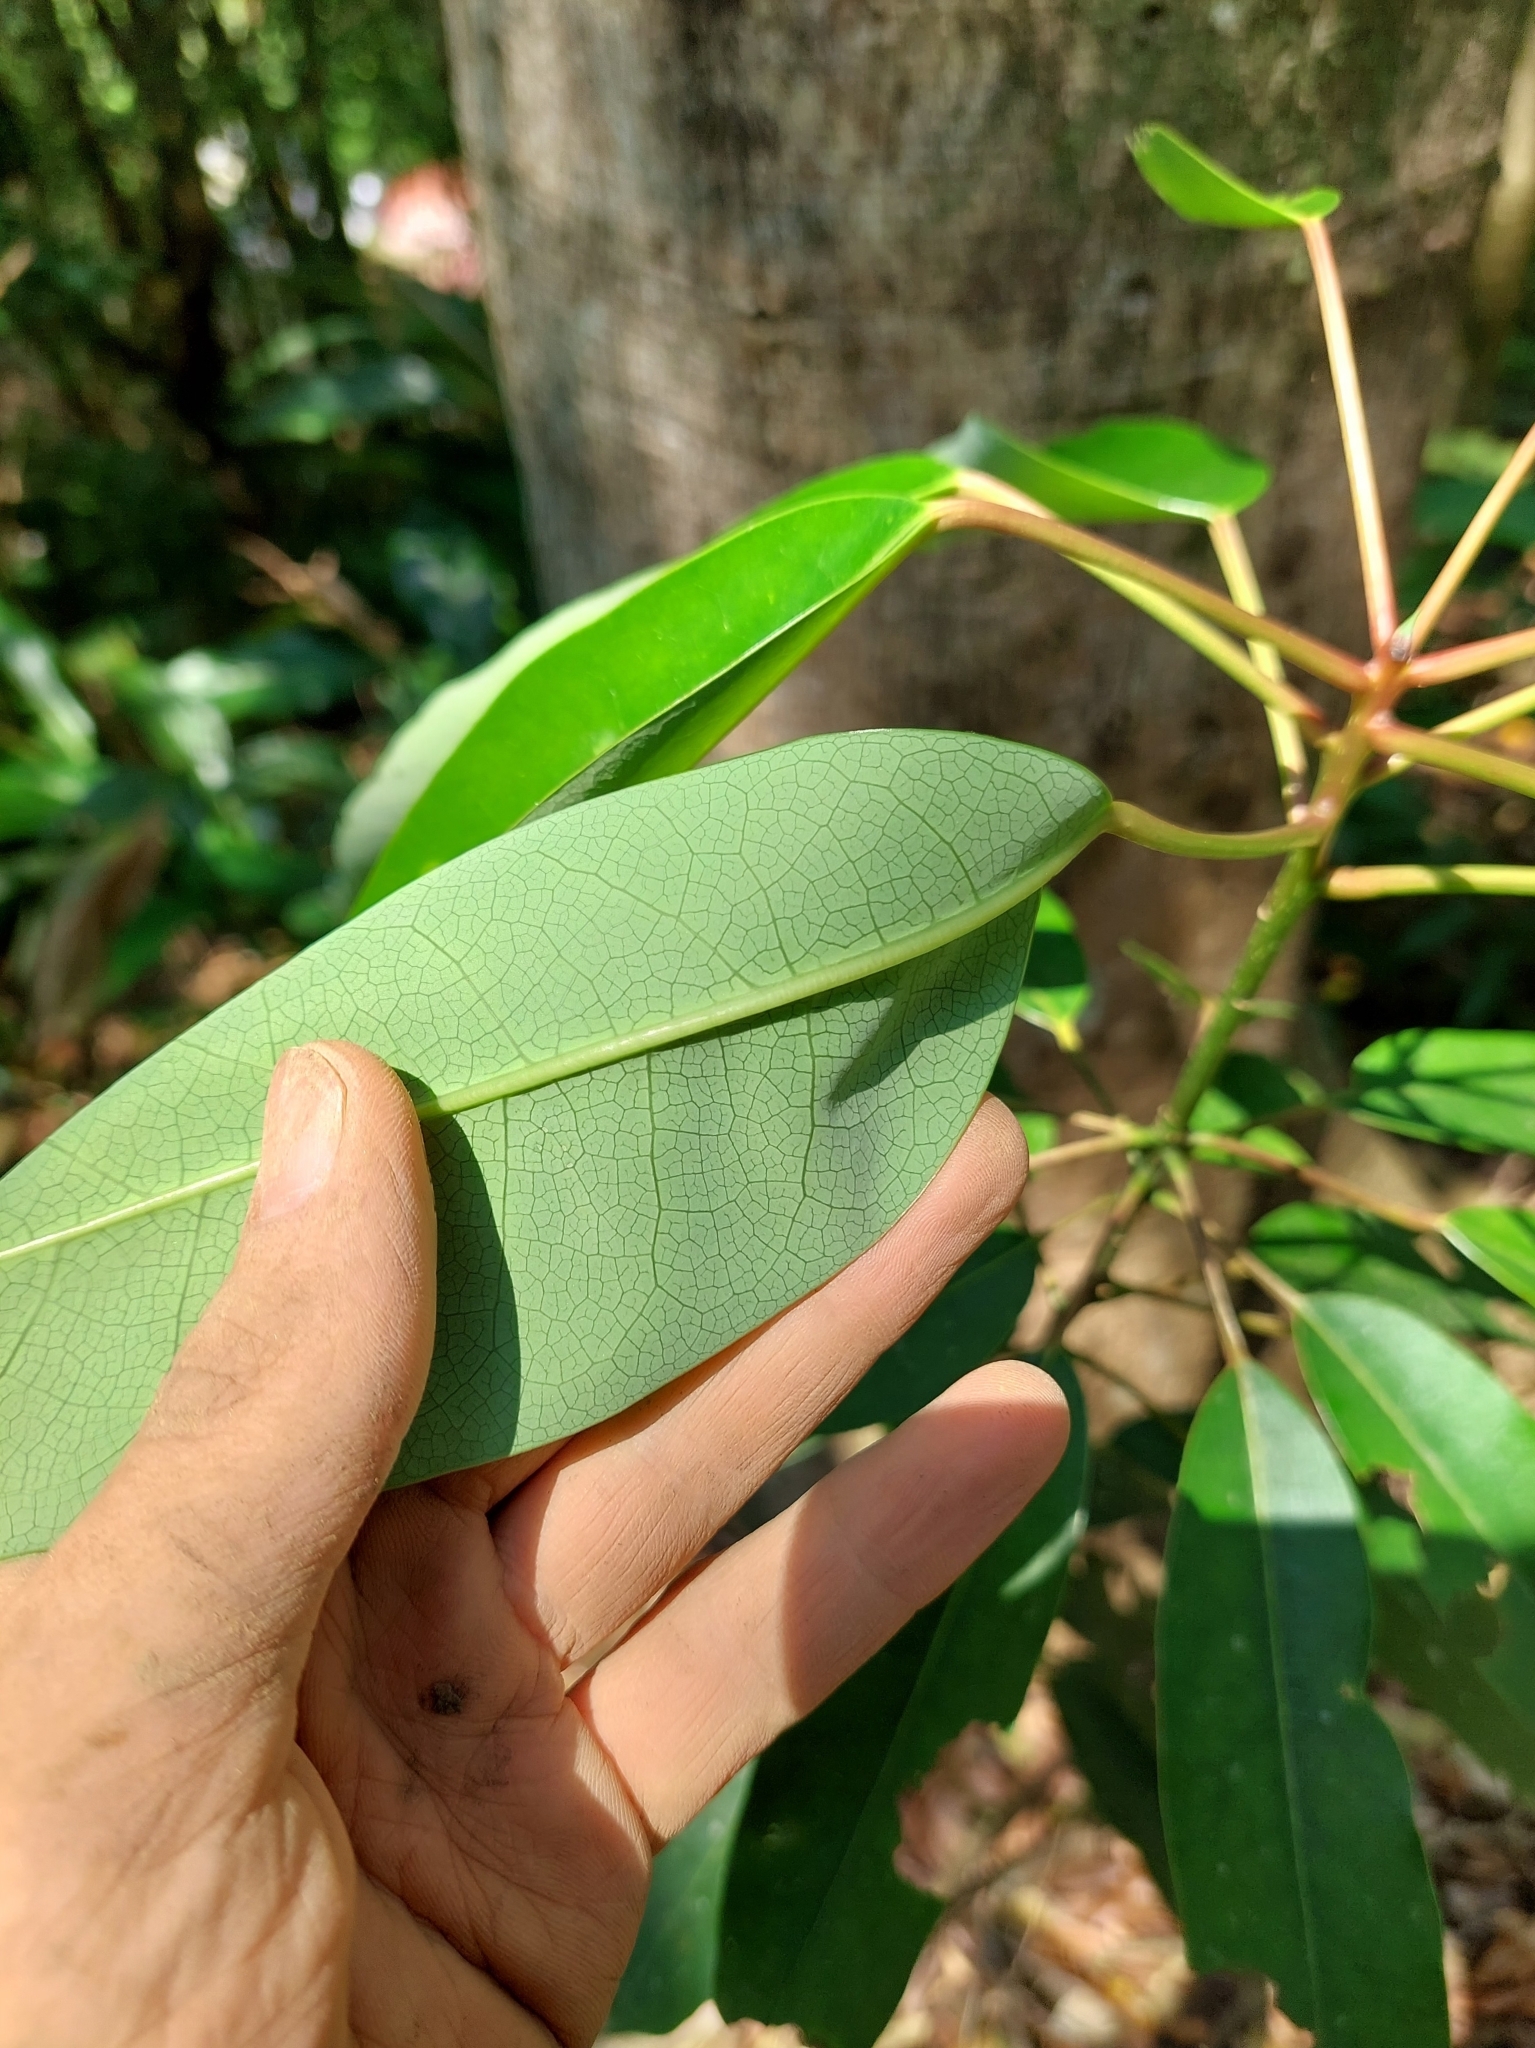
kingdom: Plantae
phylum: Tracheophyta
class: Magnoliopsida
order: Saxifragales
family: Daphniphyllaceae
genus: Daphniphyllum
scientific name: Daphniphyllum pentandrum
